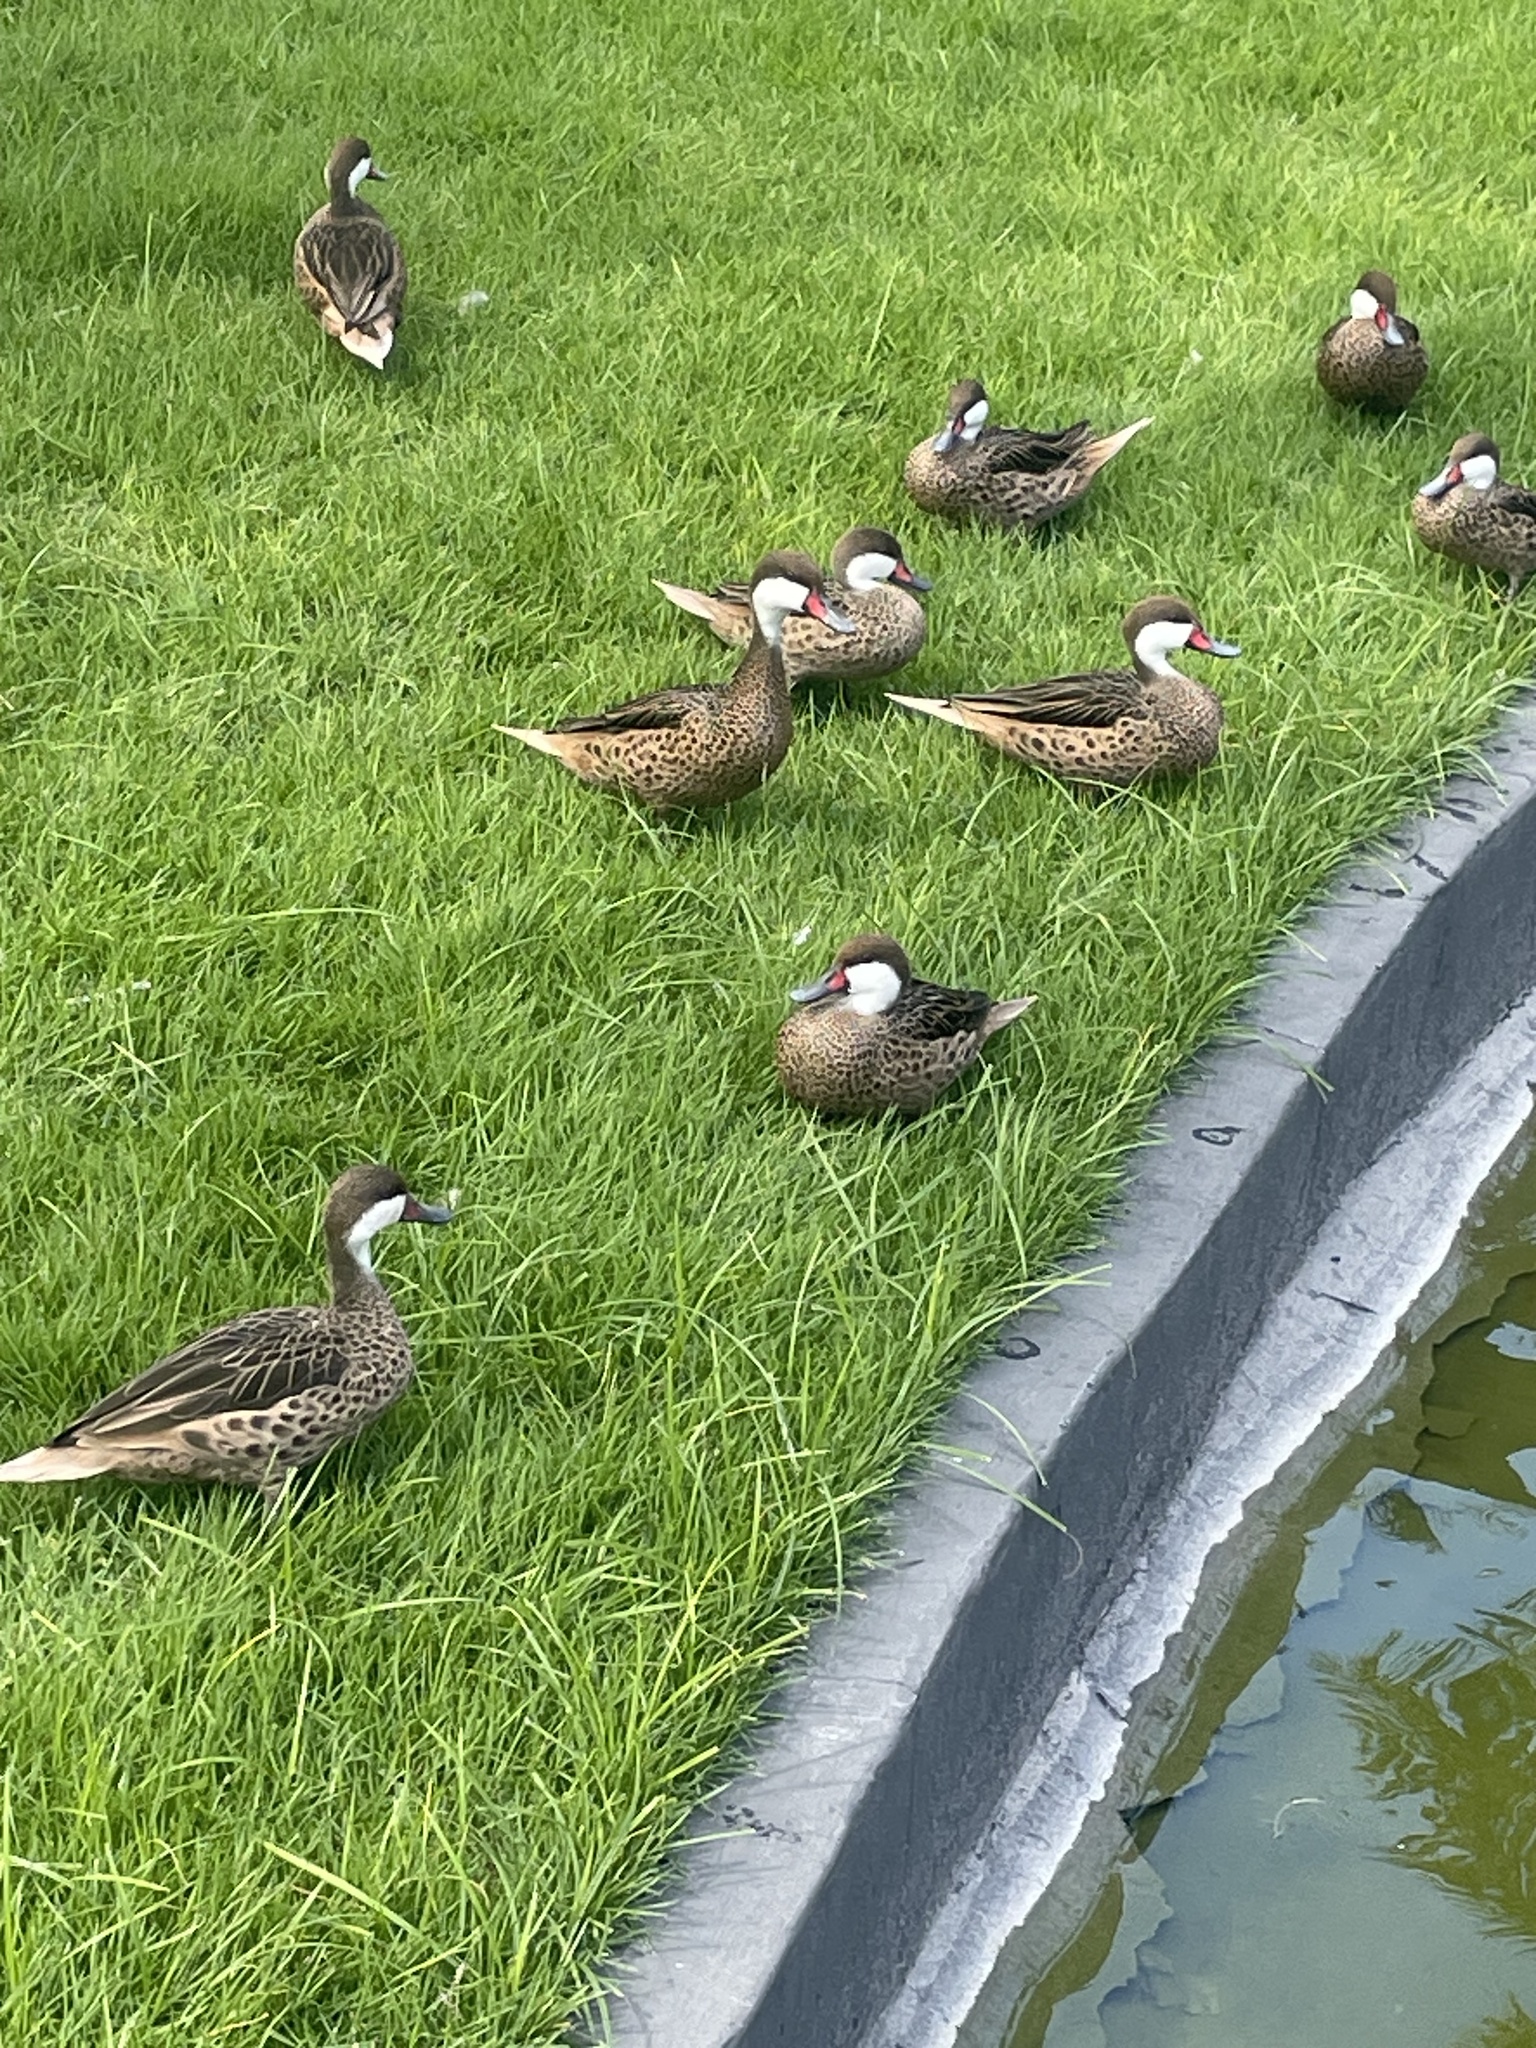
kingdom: Animalia
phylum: Chordata
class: Aves
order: Anseriformes
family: Anatidae
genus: Anas
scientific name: Anas bahamensis
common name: White-cheeked pintail
